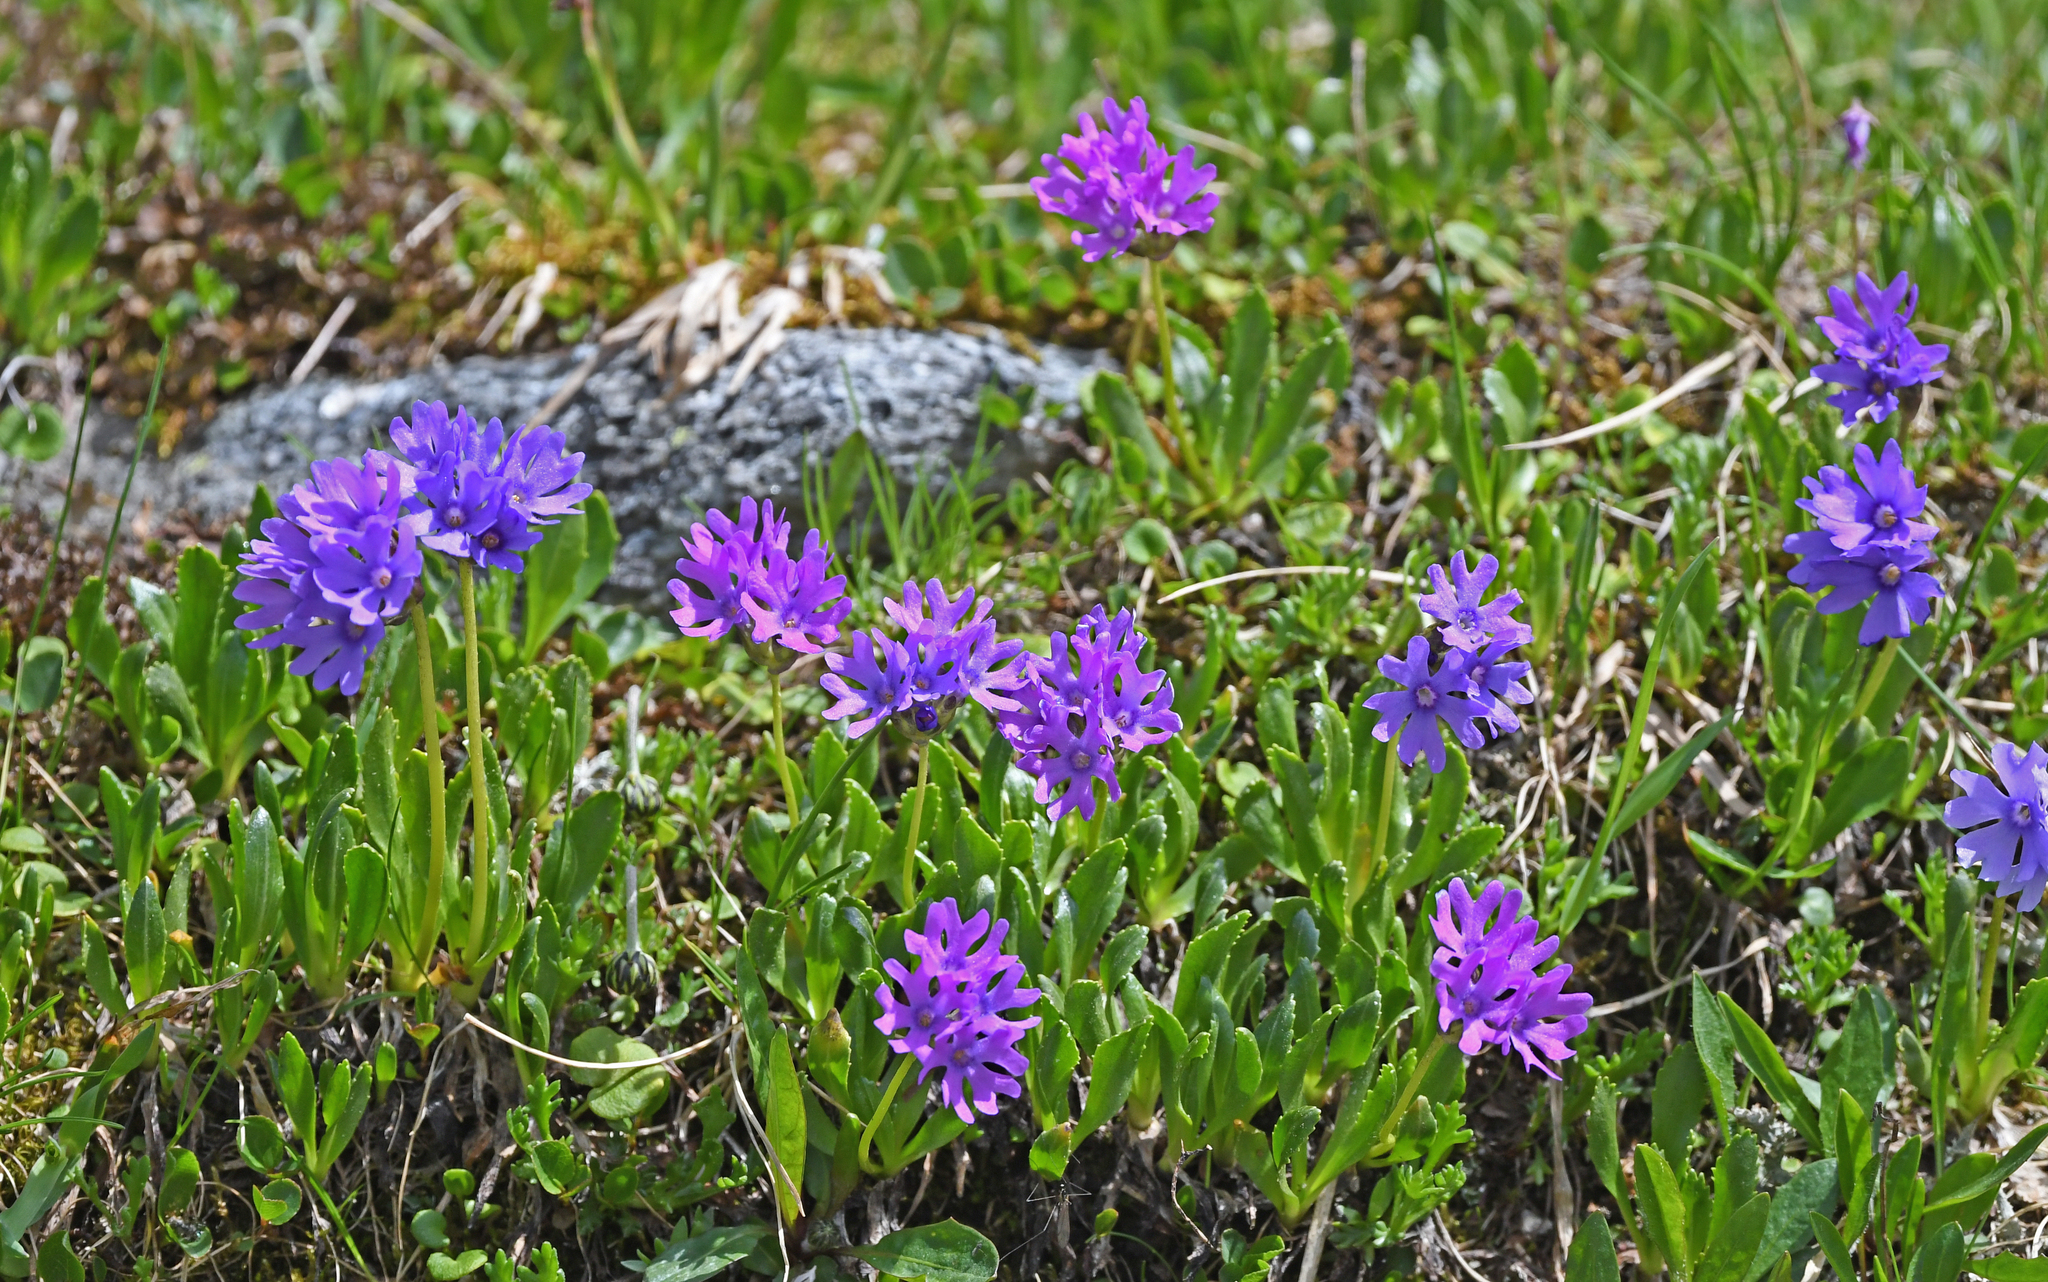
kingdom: Plantae
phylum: Tracheophyta
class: Magnoliopsida
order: Ericales
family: Primulaceae
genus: Primula
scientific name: Primula glutinosa
